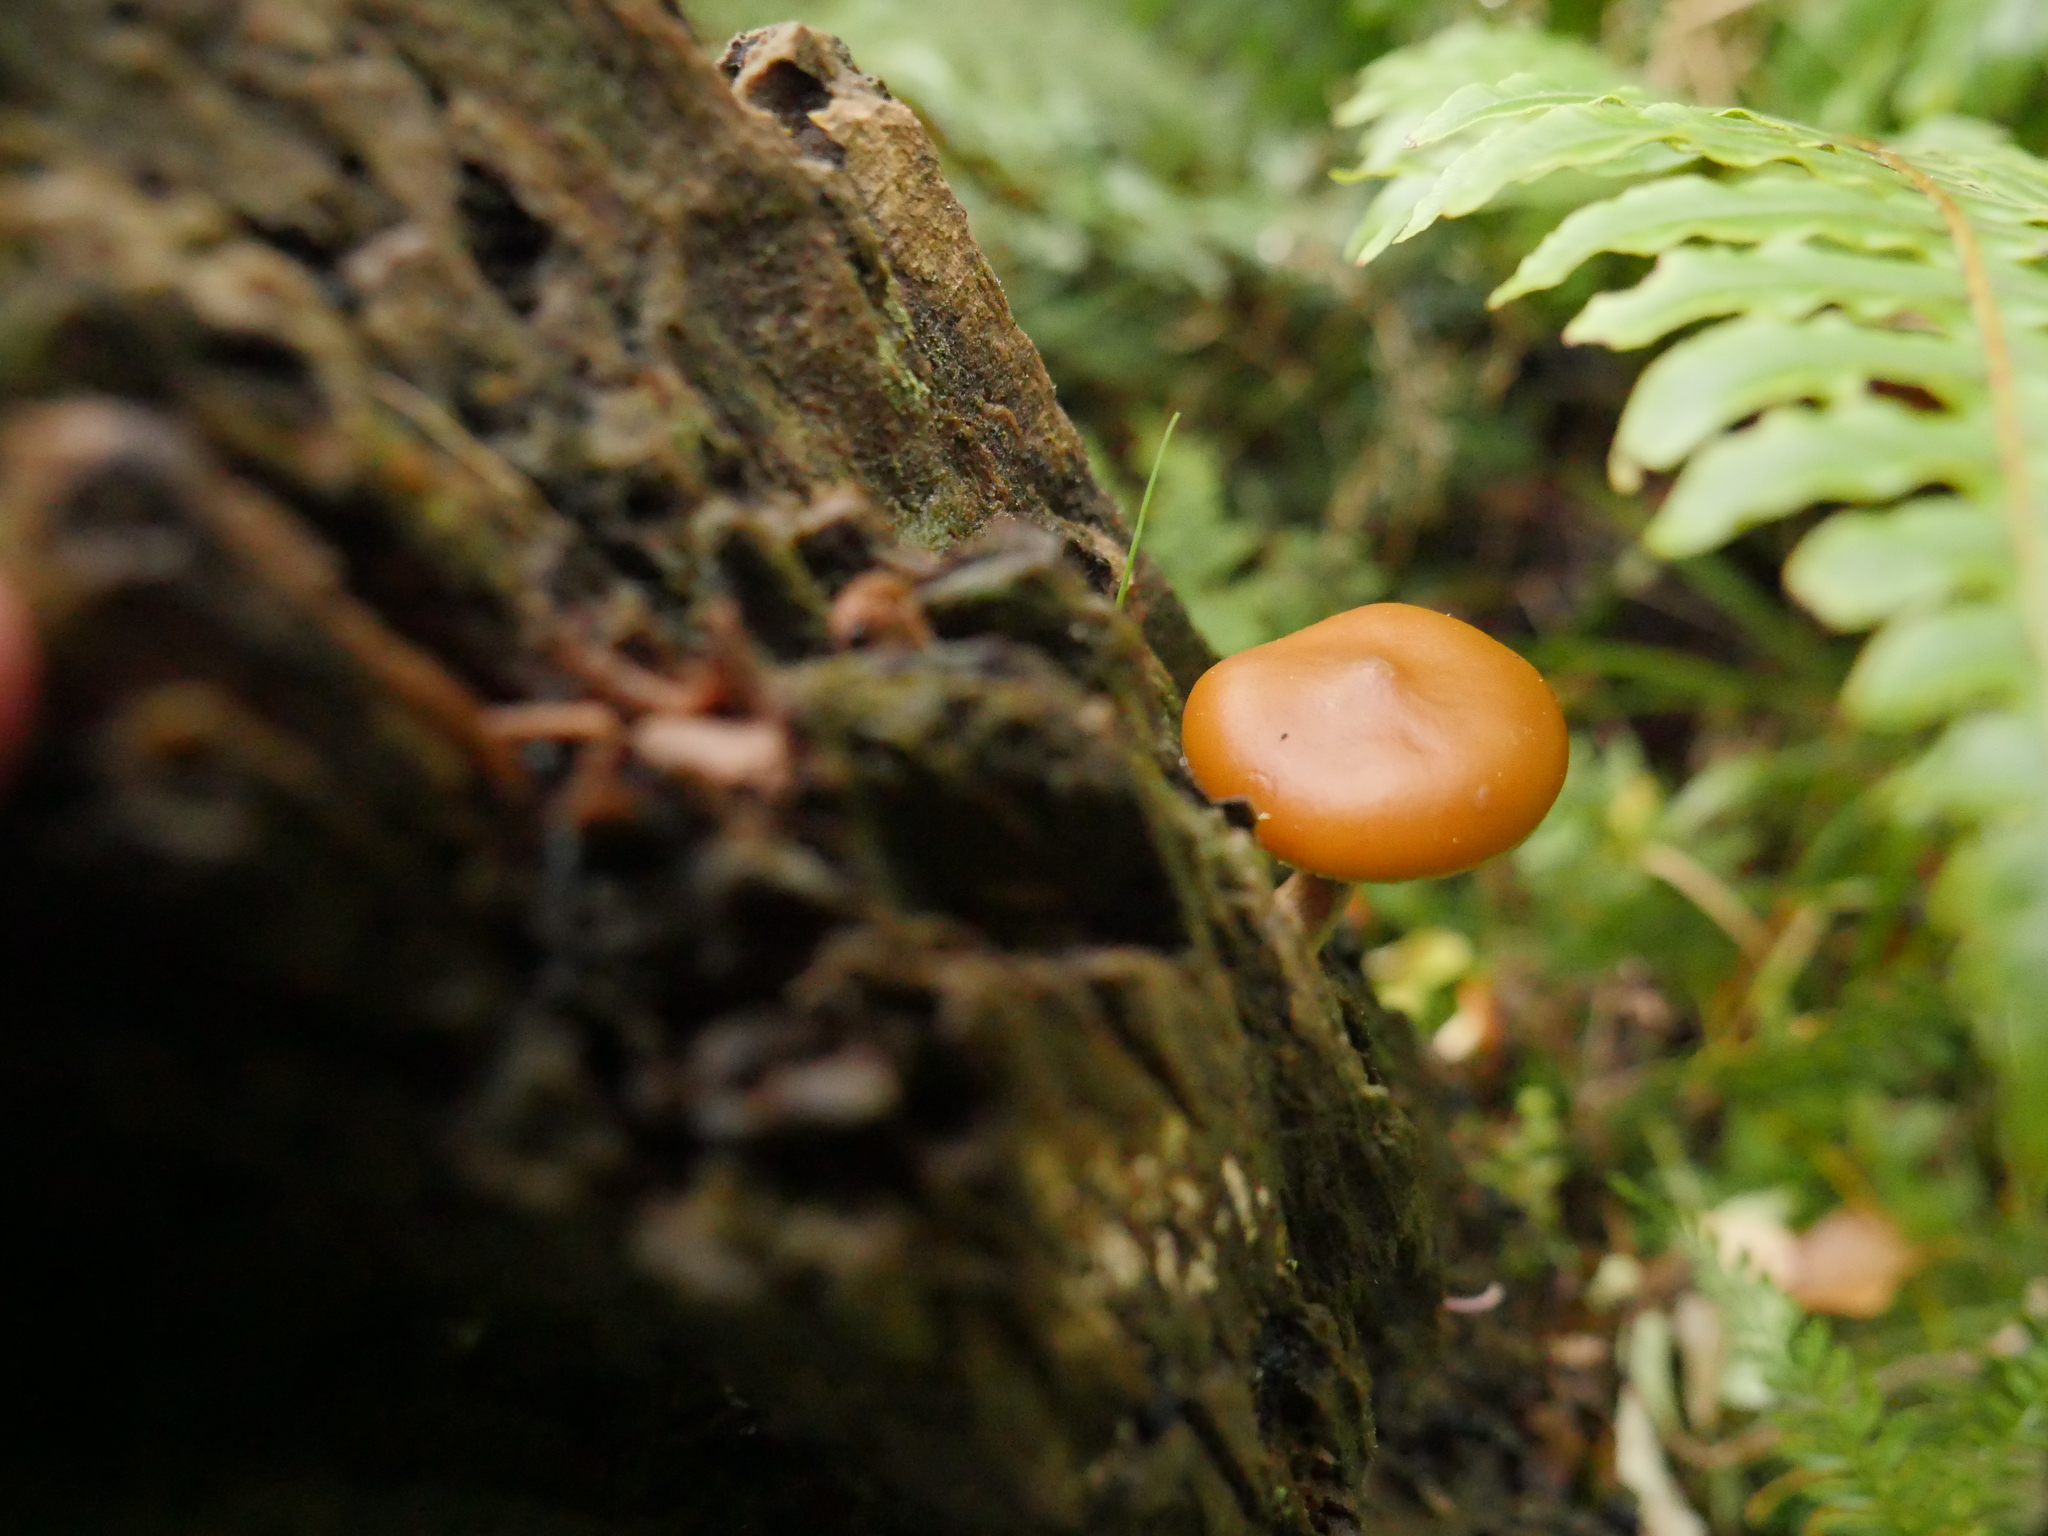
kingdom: Fungi
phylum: Basidiomycota
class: Agaricomycetes
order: Agaricales
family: Hymenogastraceae
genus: Galerina
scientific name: Galerina patagonica
